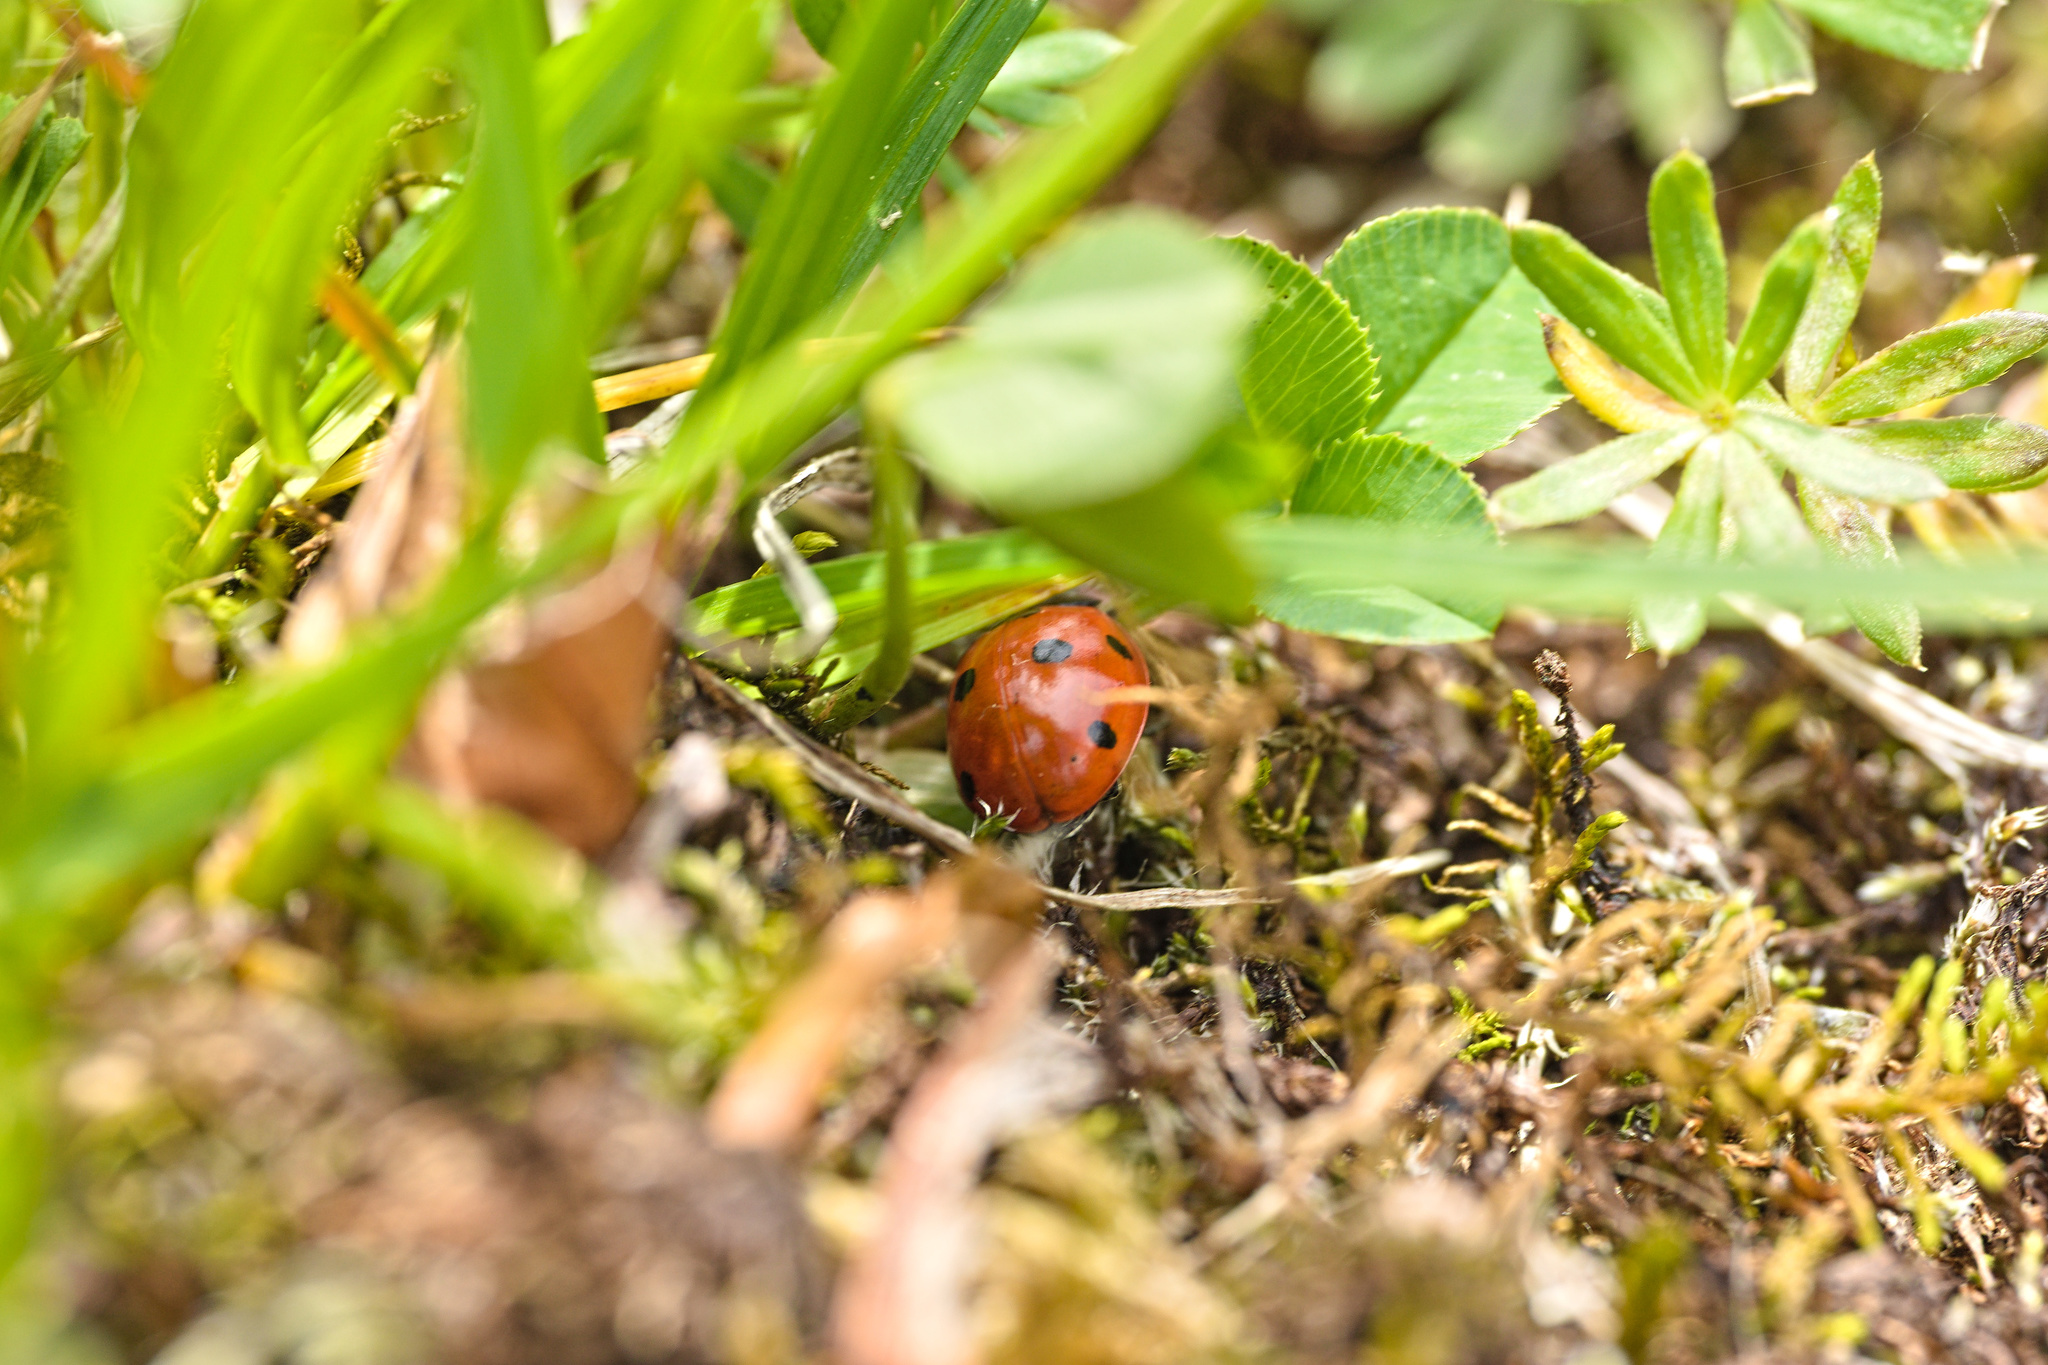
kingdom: Animalia
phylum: Arthropoda
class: Insecta
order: Coleoptera
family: Coccinellidae
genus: Coccinella
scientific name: Coccinella septempunctata
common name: Sevenspotted lady beetle
